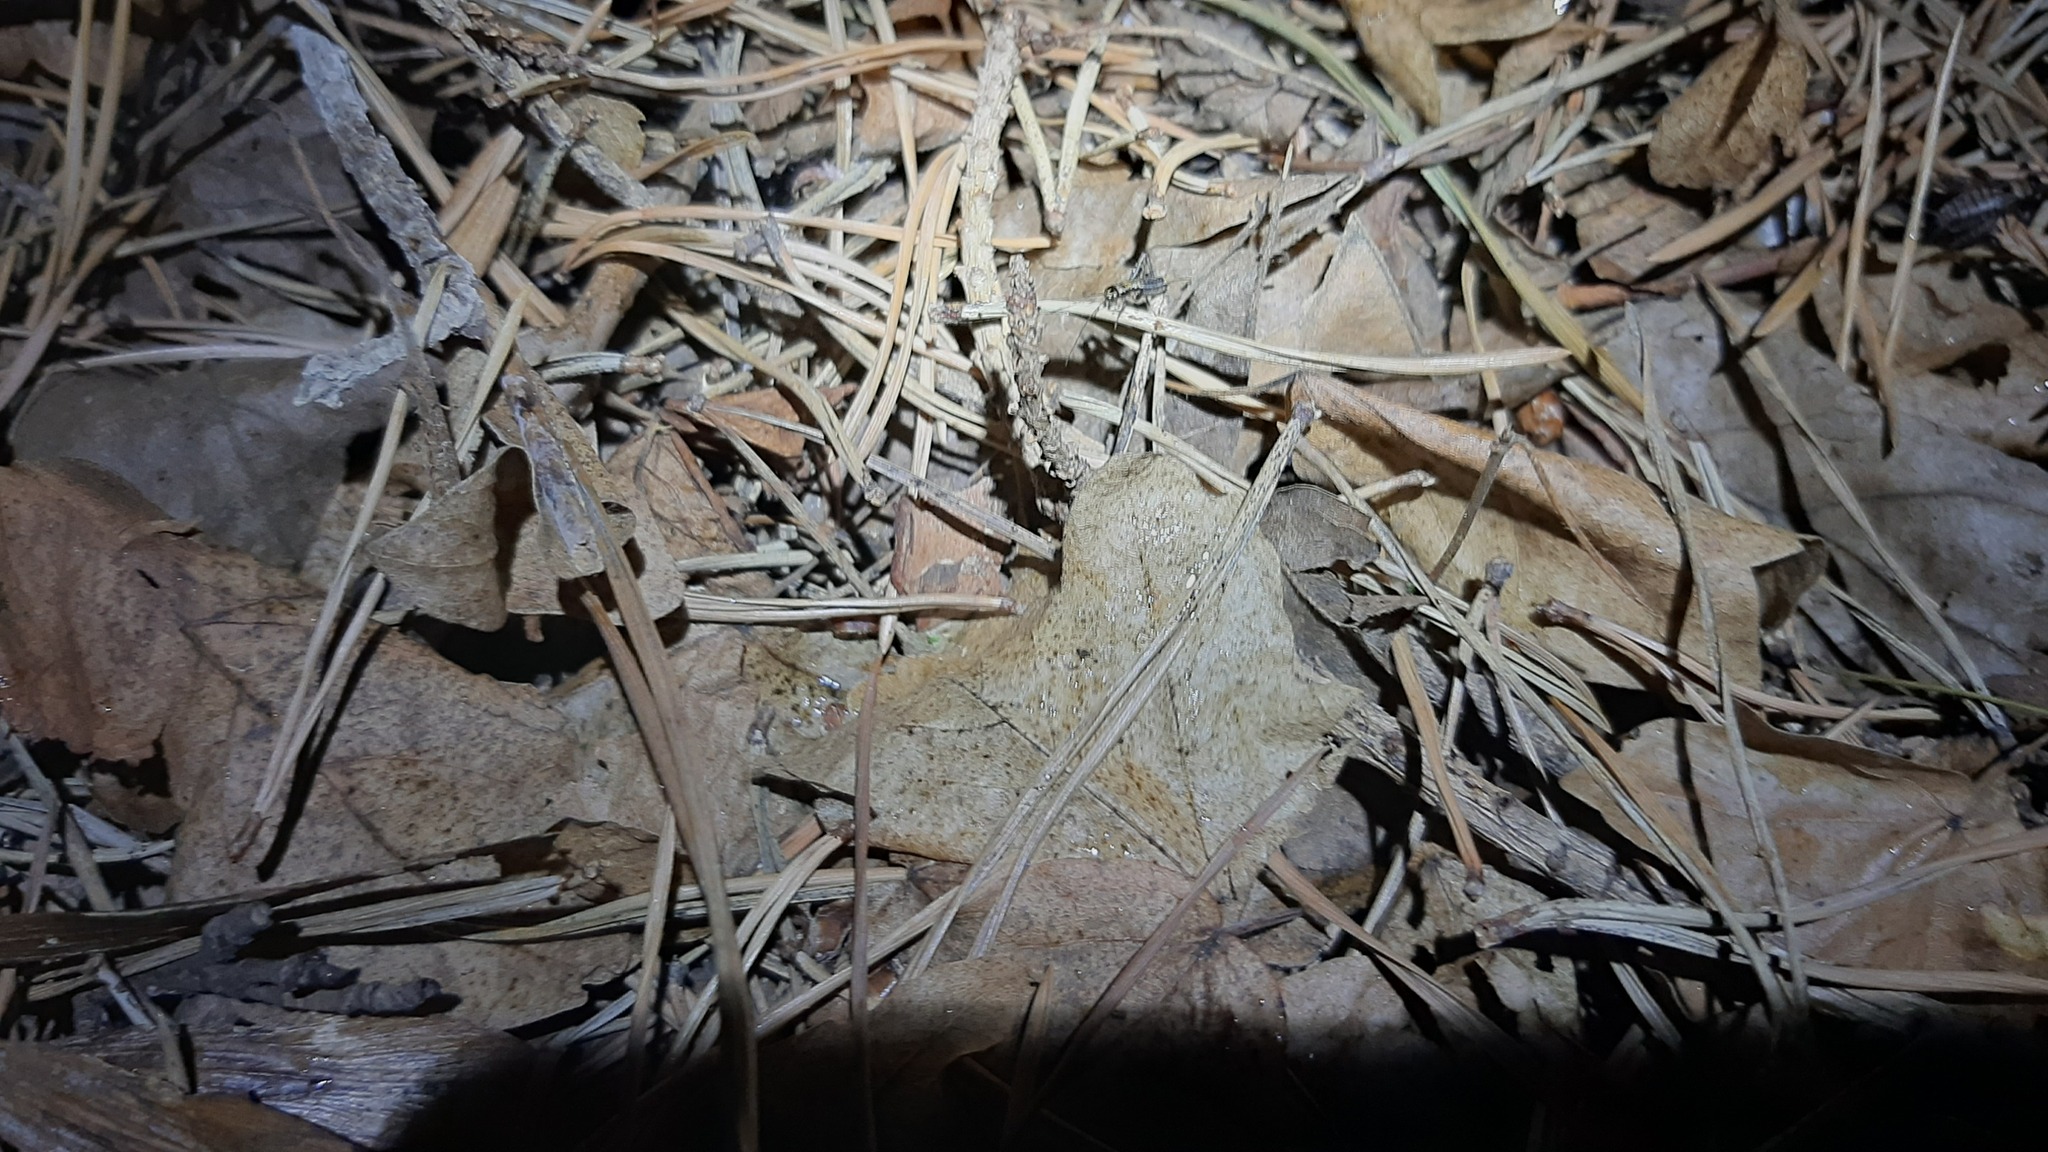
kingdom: Animalia
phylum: Arthropoda
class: Insecta
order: Orthoptera
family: Trigonidiidae
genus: Nemobius
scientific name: Nemobius sylvestris
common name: Wood-cricket
